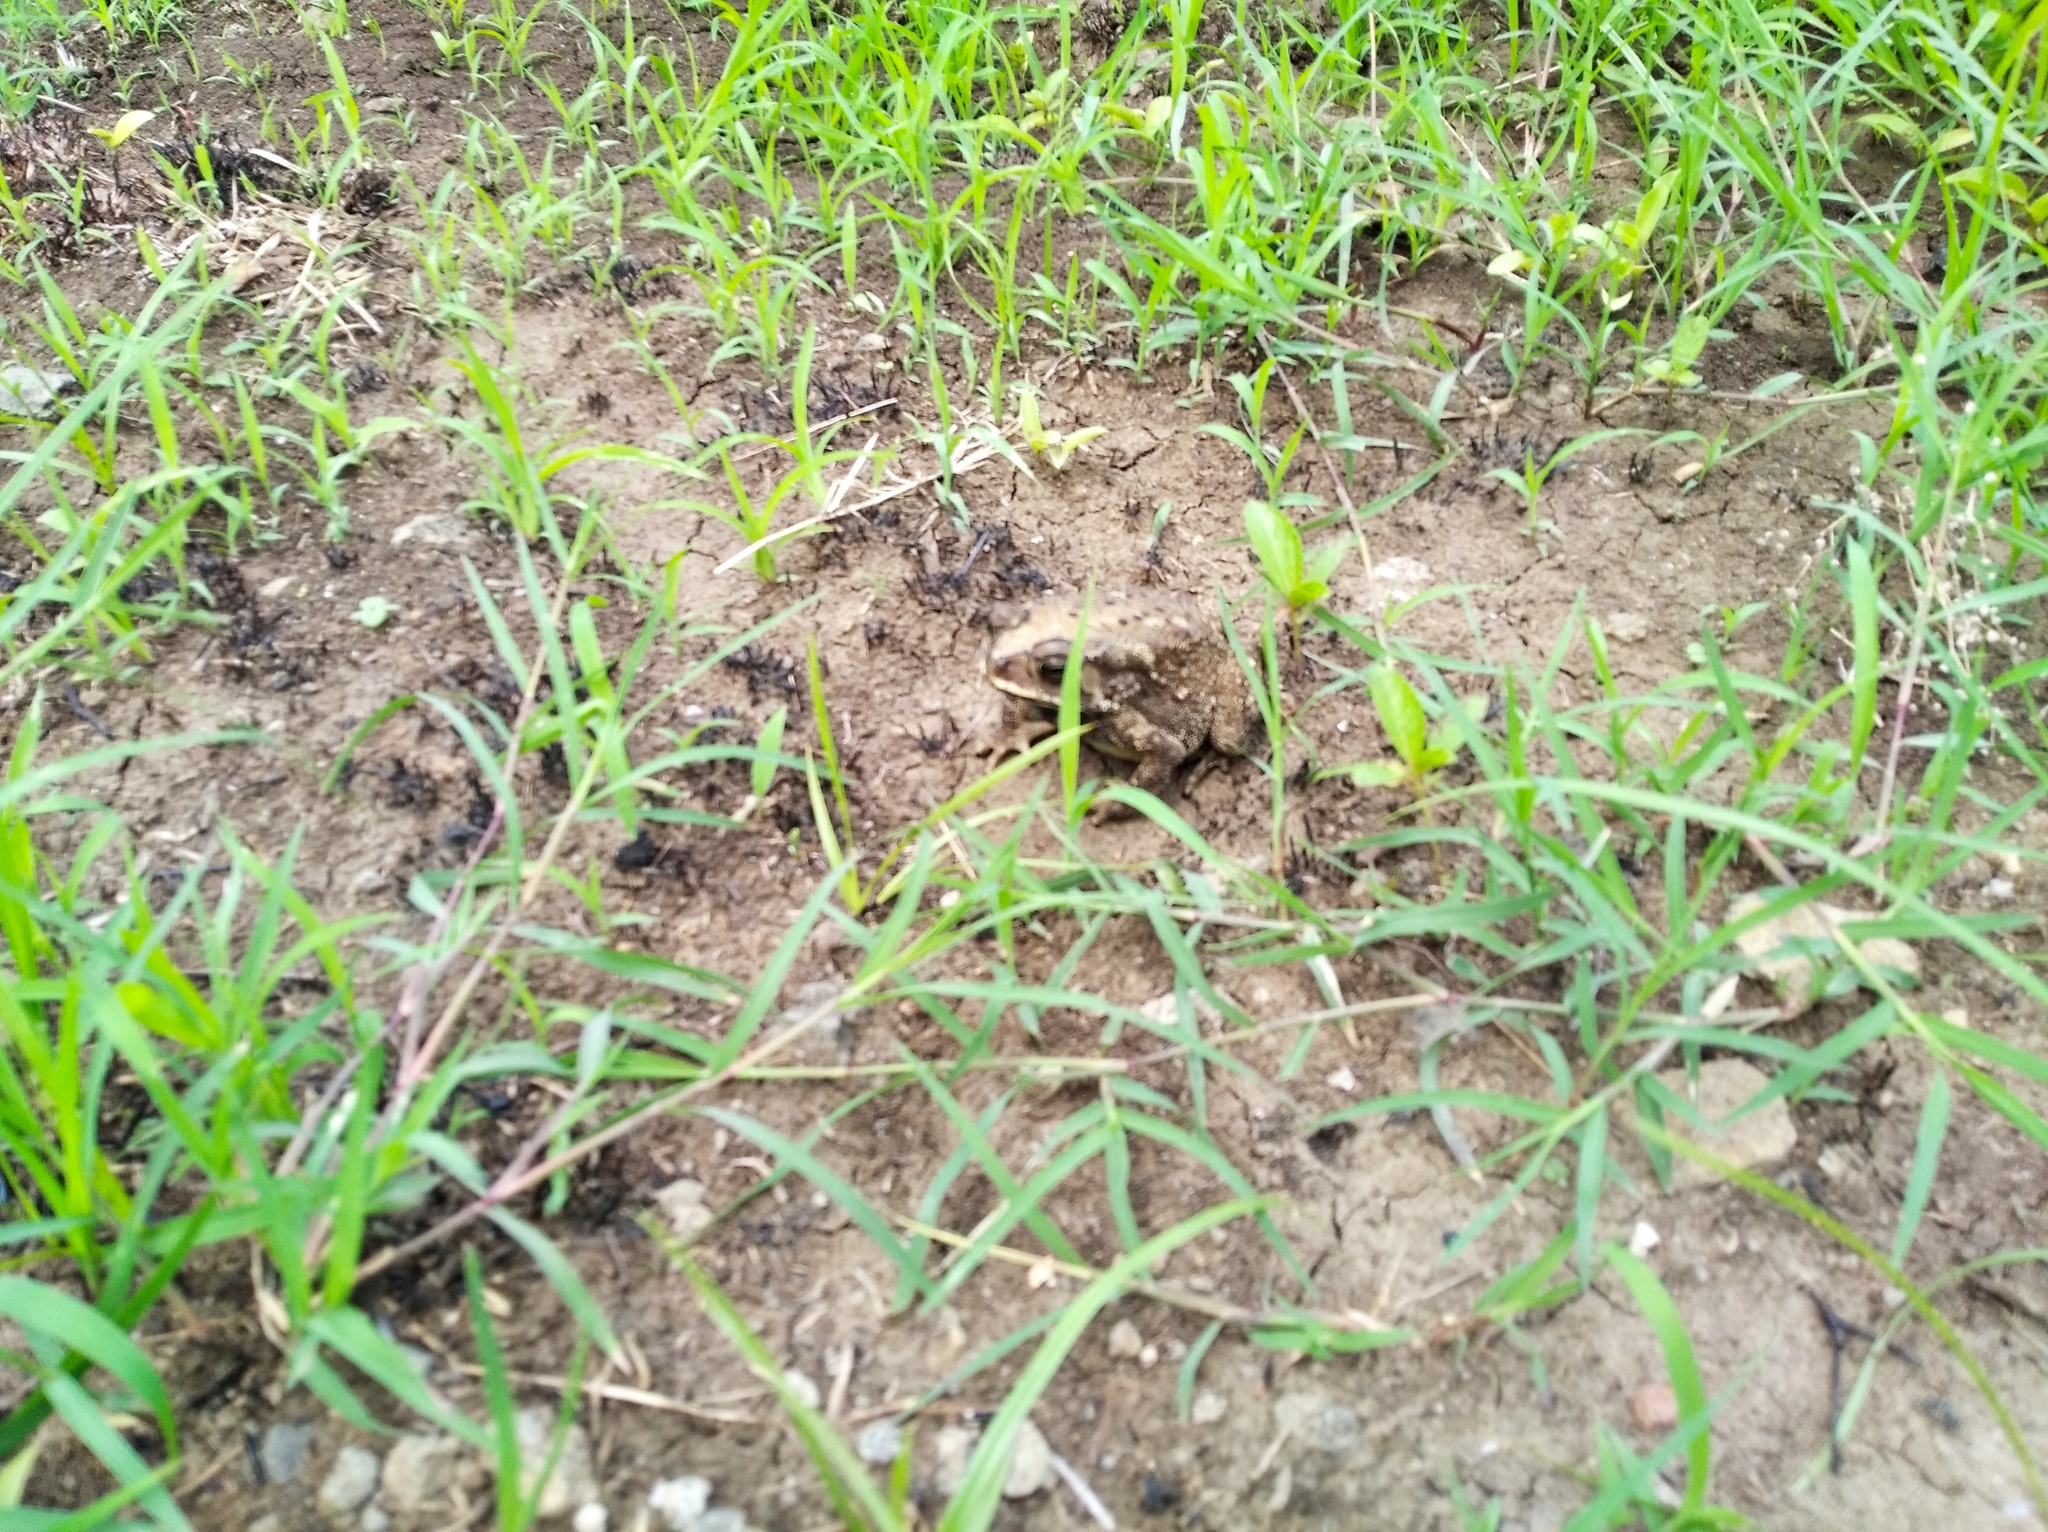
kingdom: Animalia
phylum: Chordata
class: Amphibia
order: Anura
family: Bufonidae
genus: Duttaphrynus
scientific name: Duttaphrynus melanostictus
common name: Common sunda toad
